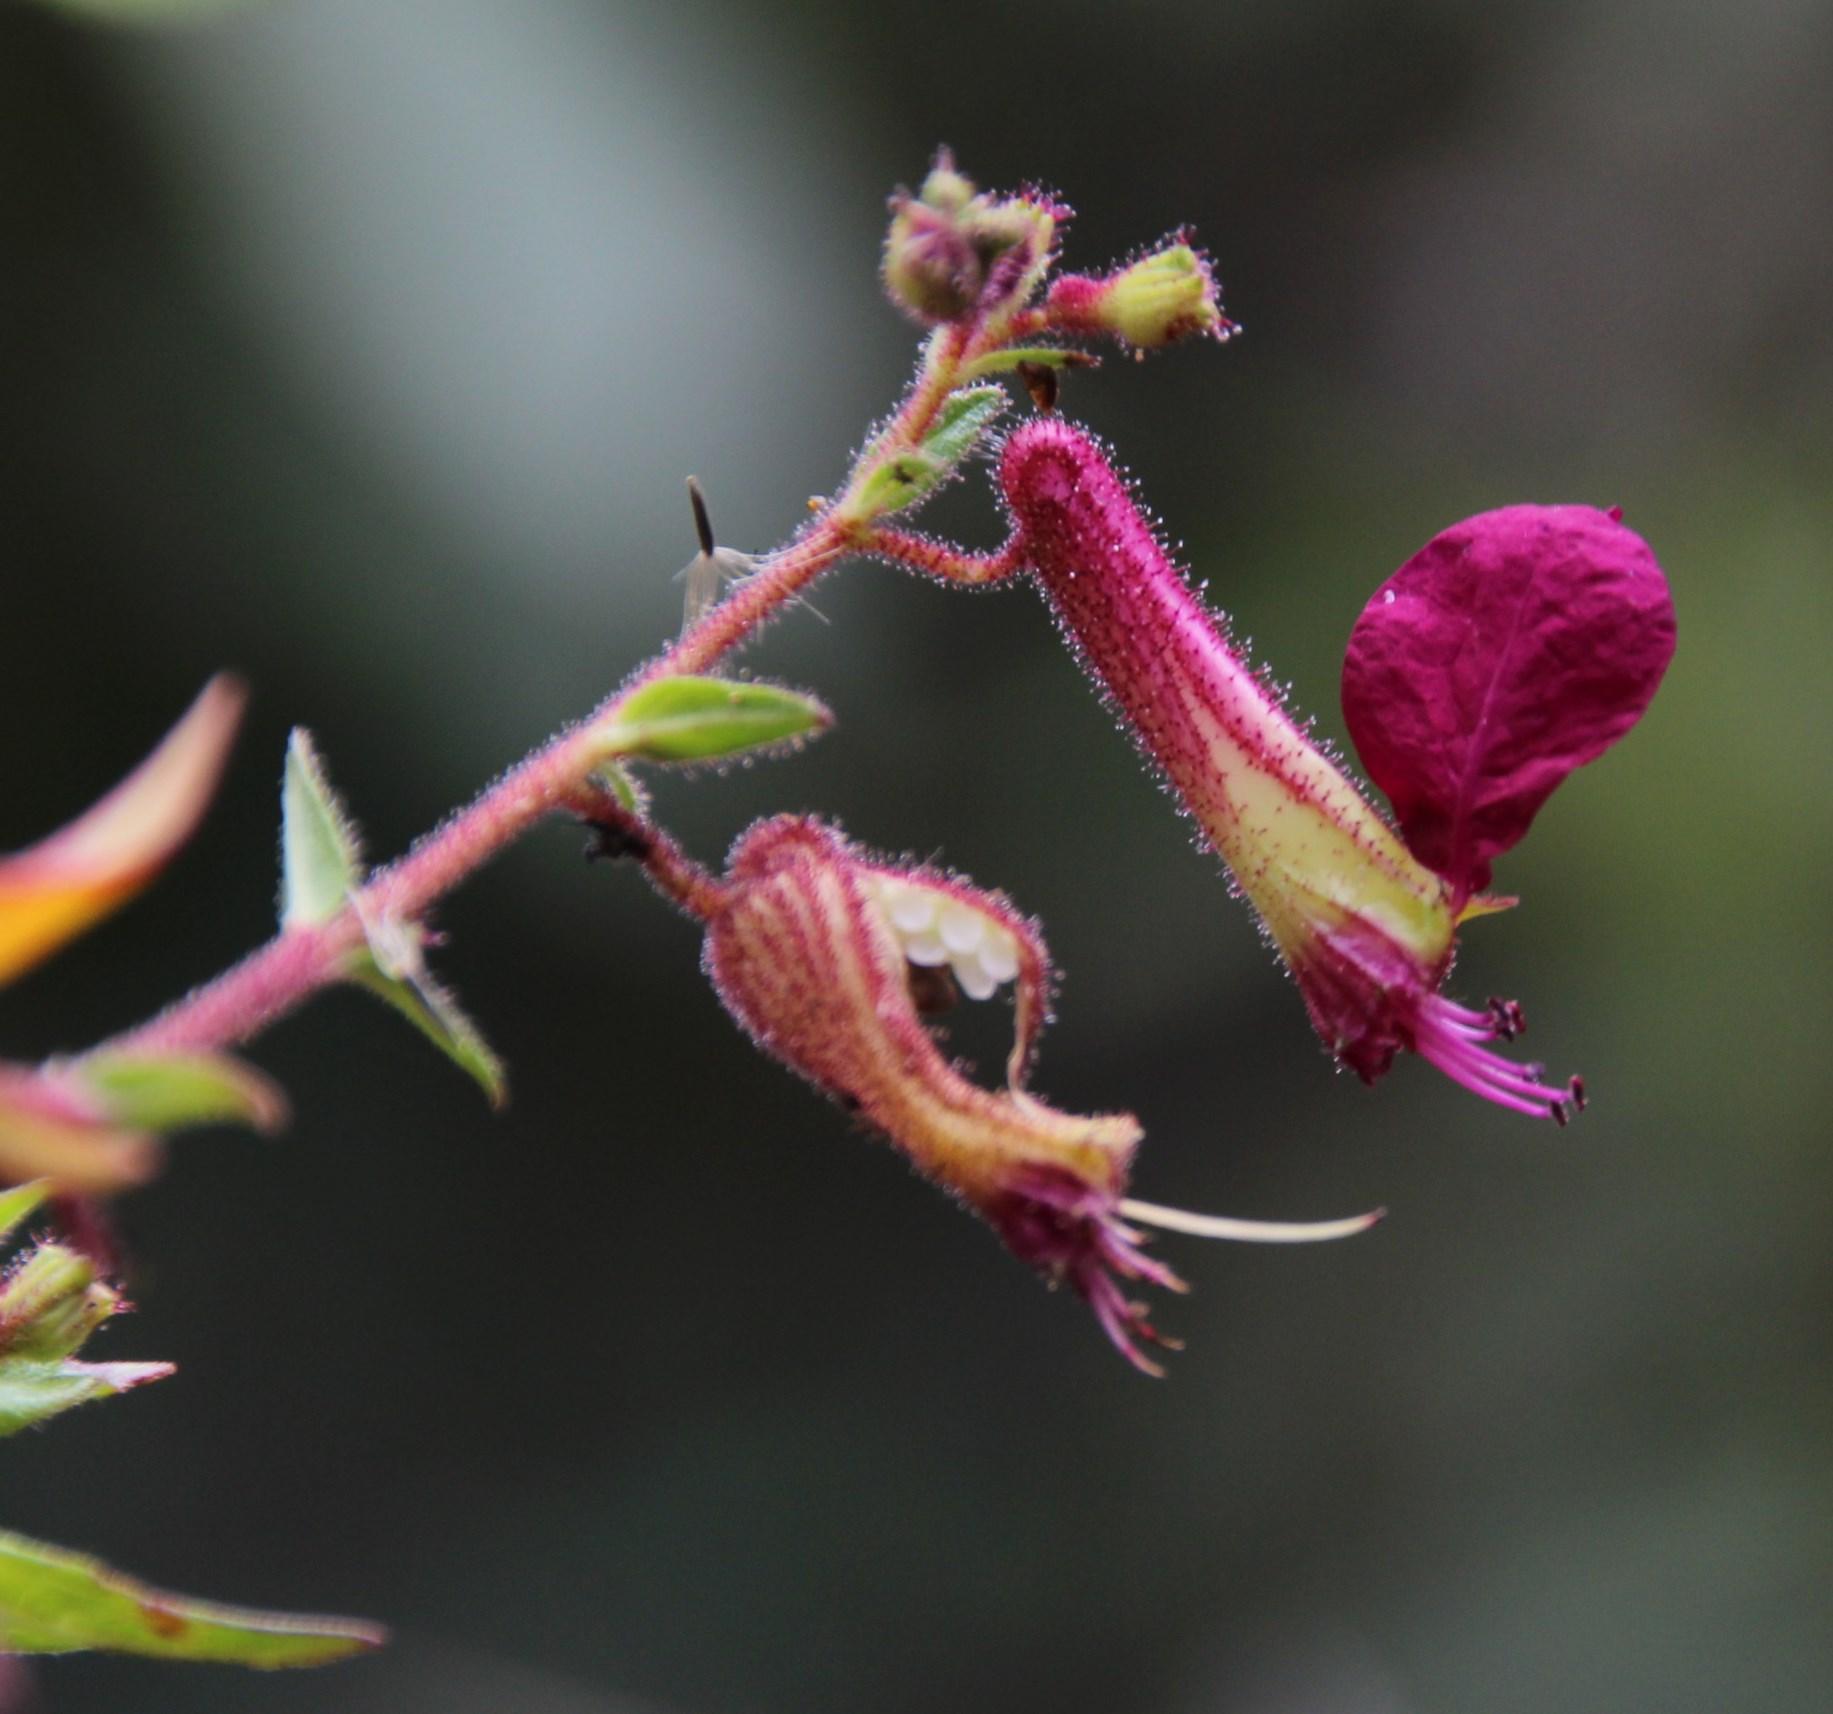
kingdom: Plantae
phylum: Tracheophyta
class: Magnoliopsida
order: Myrtales
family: Lythraceae
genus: Cuphea
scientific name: Cuphea cordata
